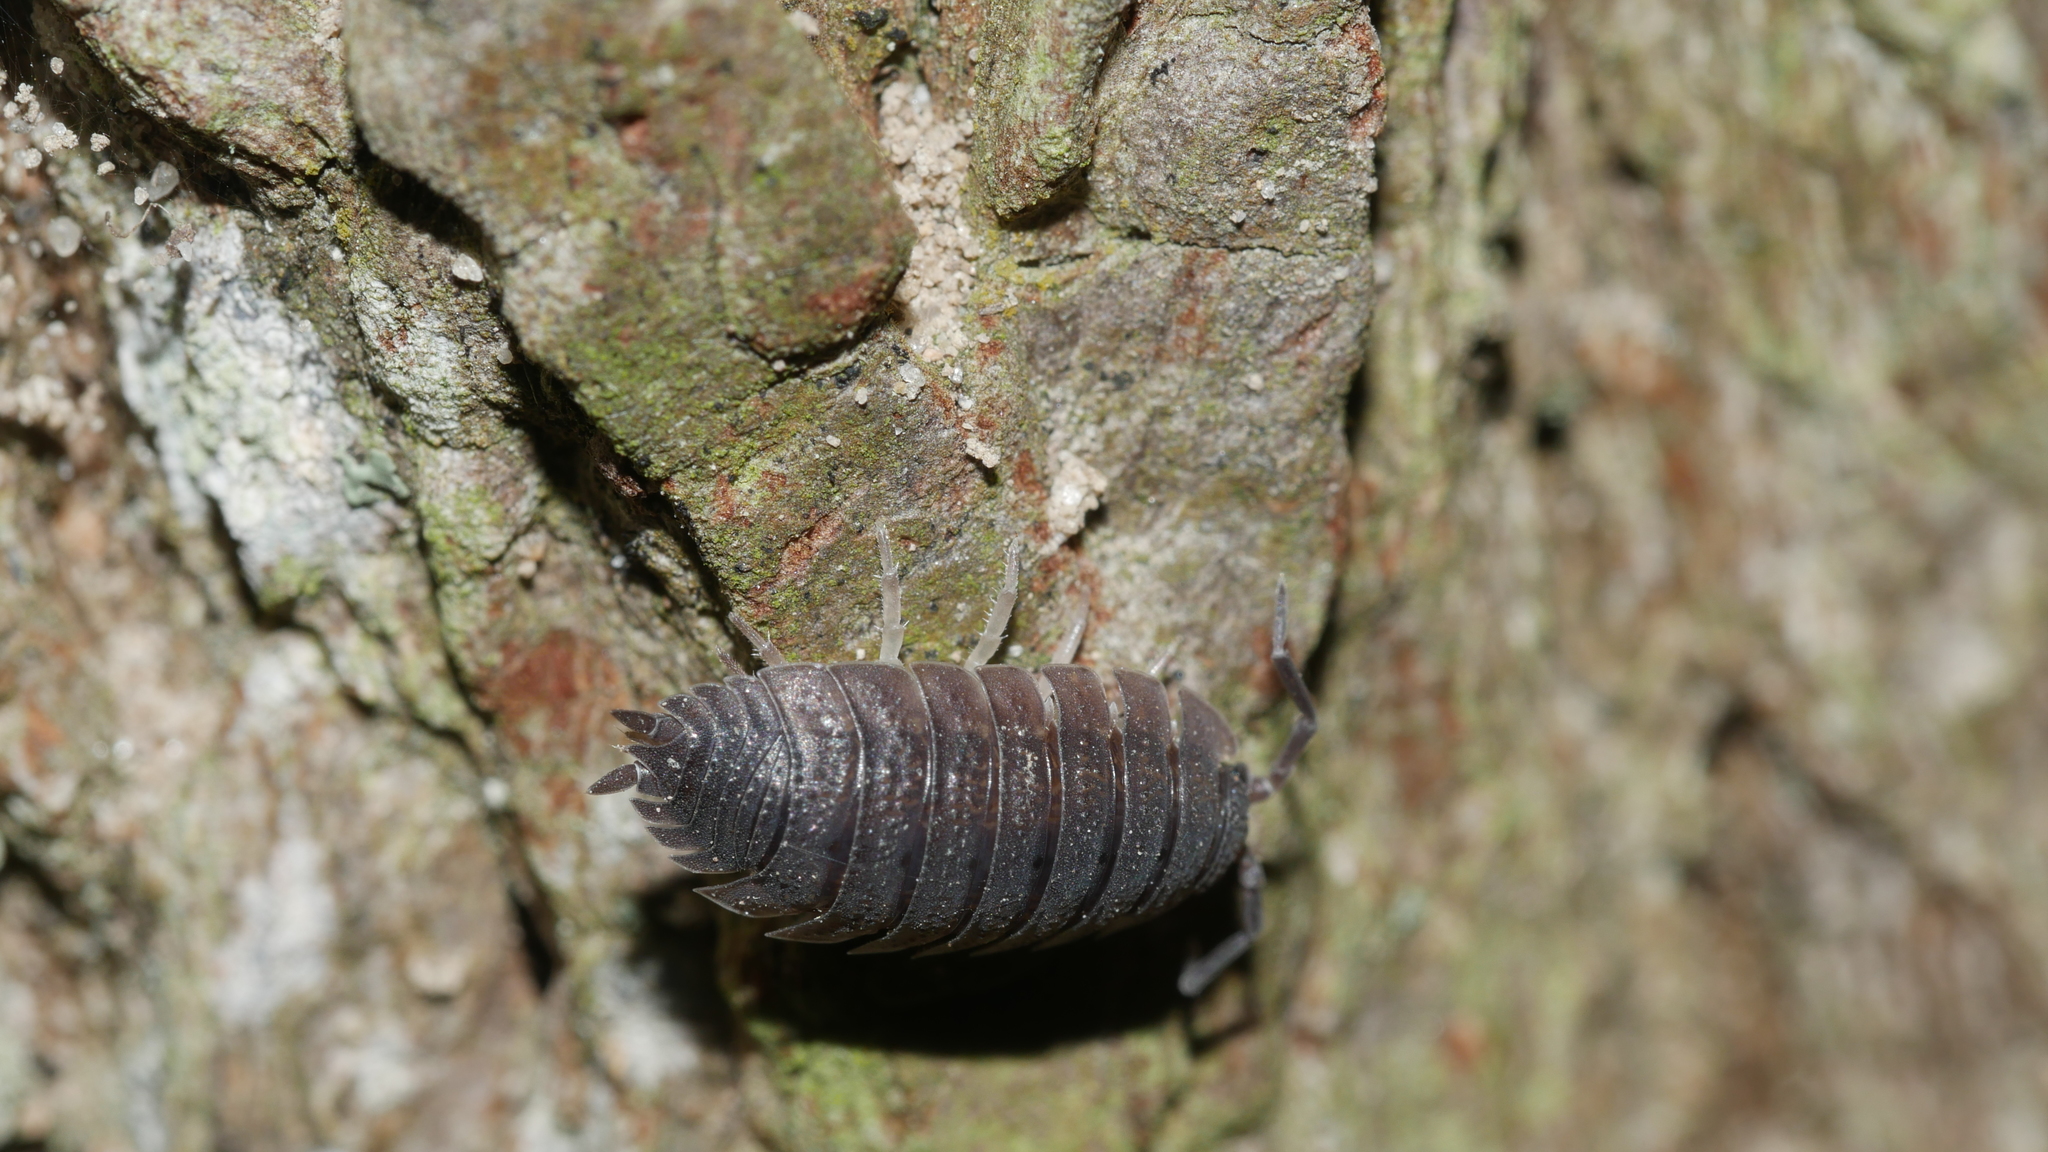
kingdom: Animalia
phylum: Arthropoda
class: Malacostraca
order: Isopoda
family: Porcellionidae
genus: Porcellio
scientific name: Porcellio scaber
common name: Common rough woodlouse
